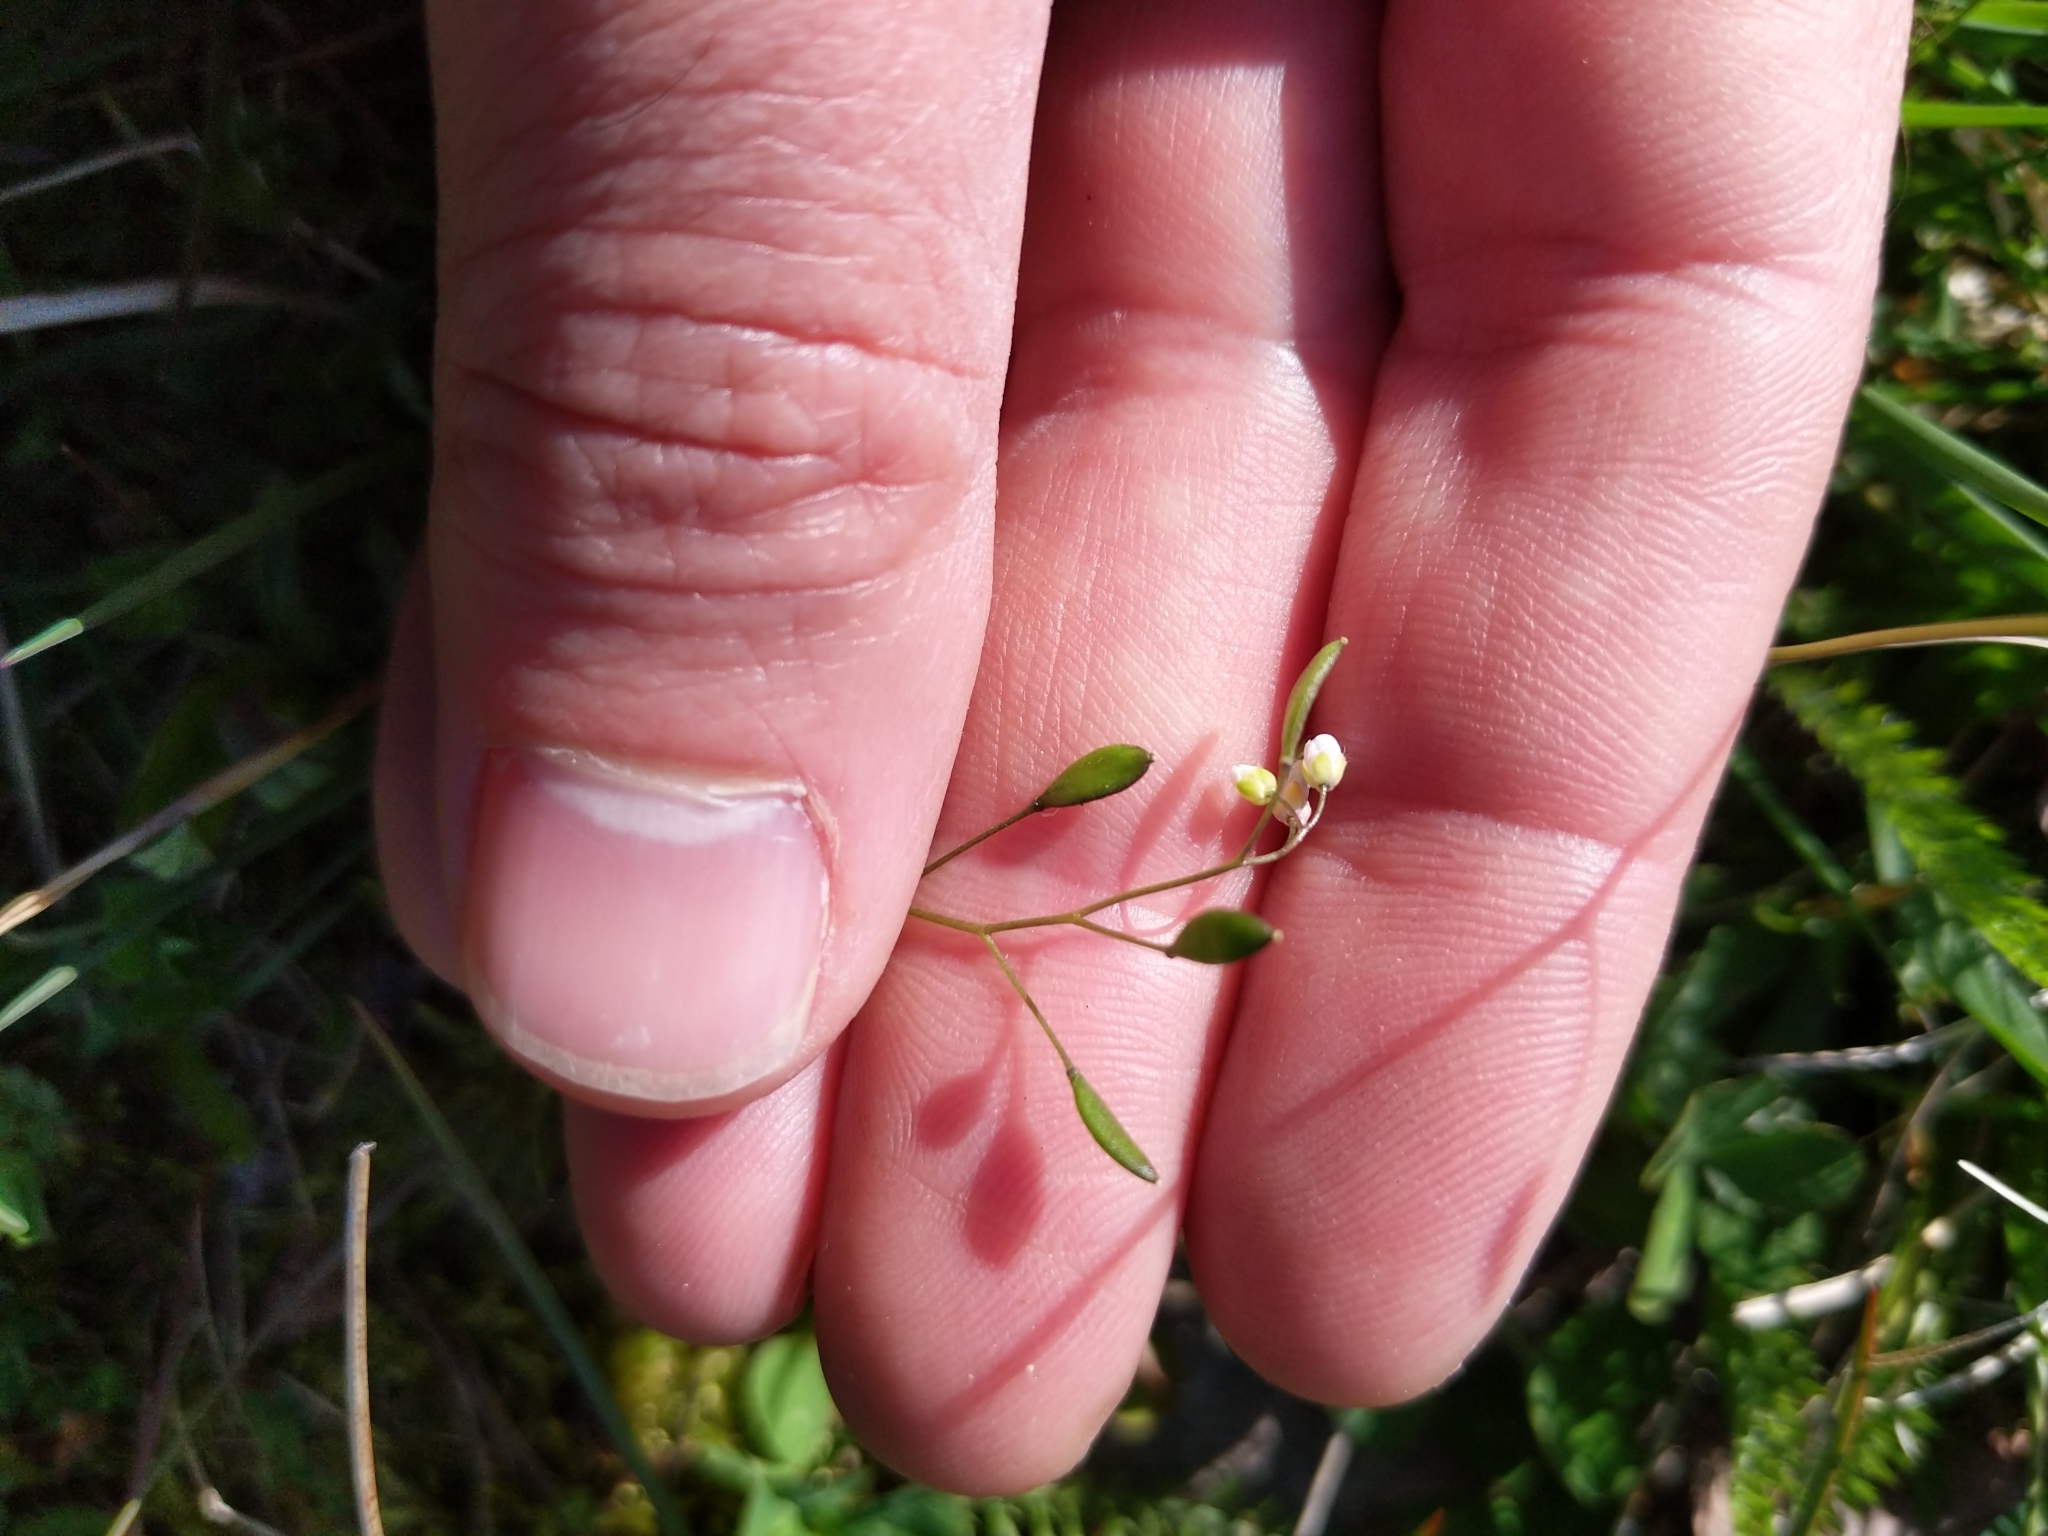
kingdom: Plantae
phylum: Tracheophyta
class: Magnoliopsida
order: Brassicales
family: Brassicaceae
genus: Draba
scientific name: Draba verna
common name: Spring draba
